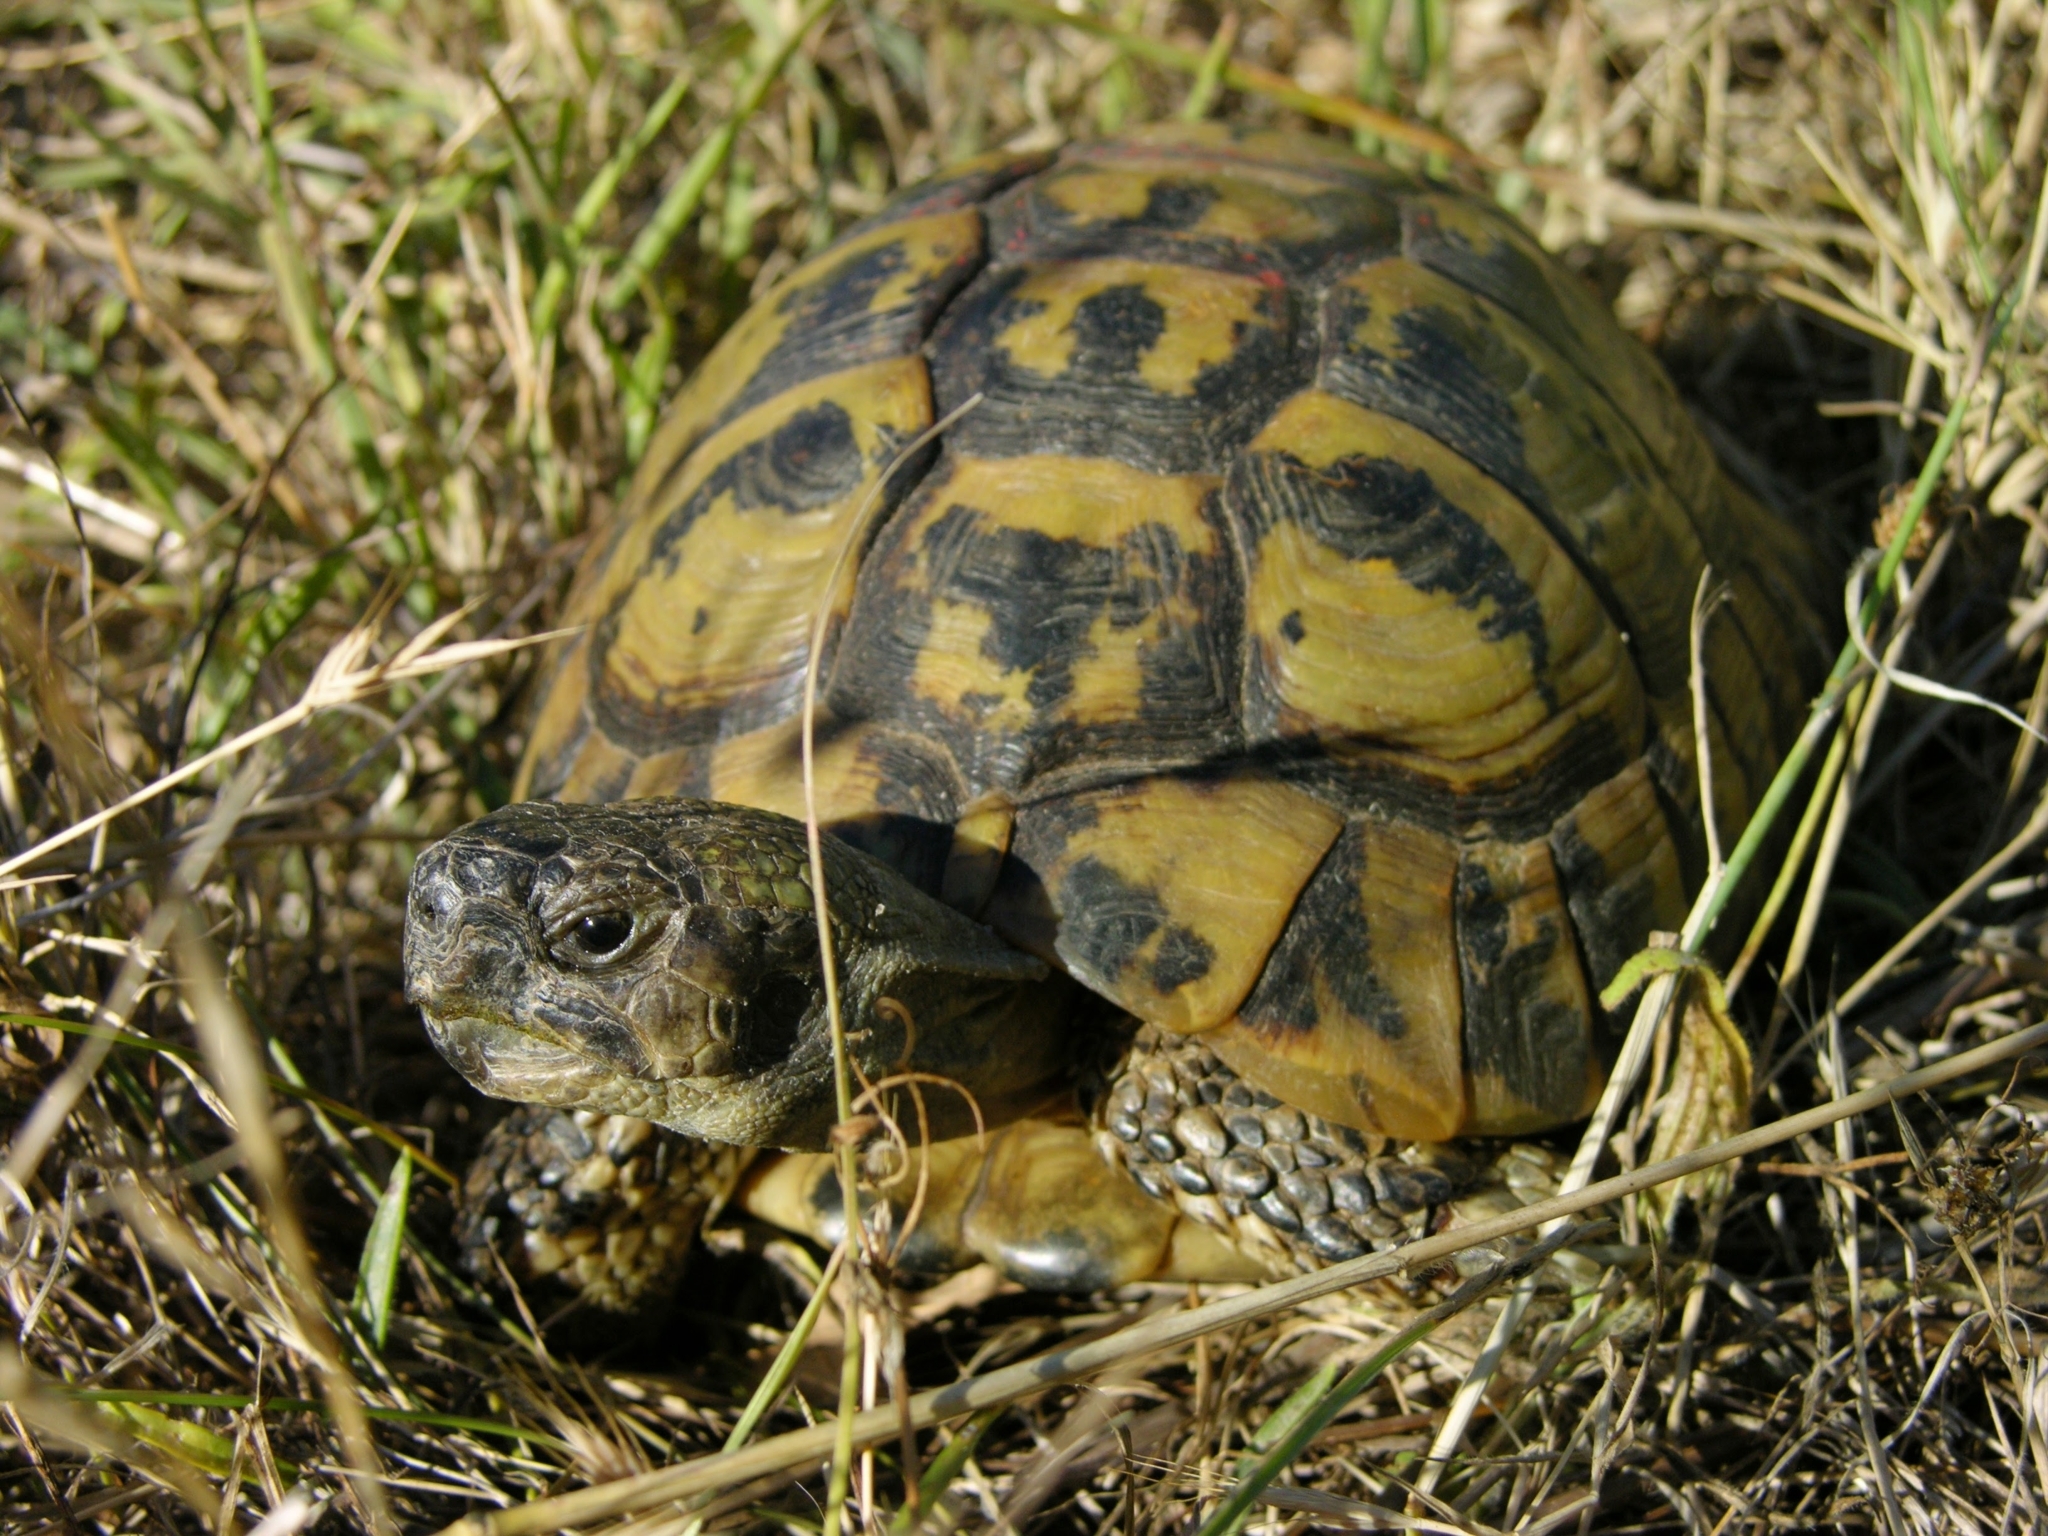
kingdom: Animalia
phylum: Chordata
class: Testudines
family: Testudinidae
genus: Testudo
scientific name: Testudo hermanni
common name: Hermann's tortoise
